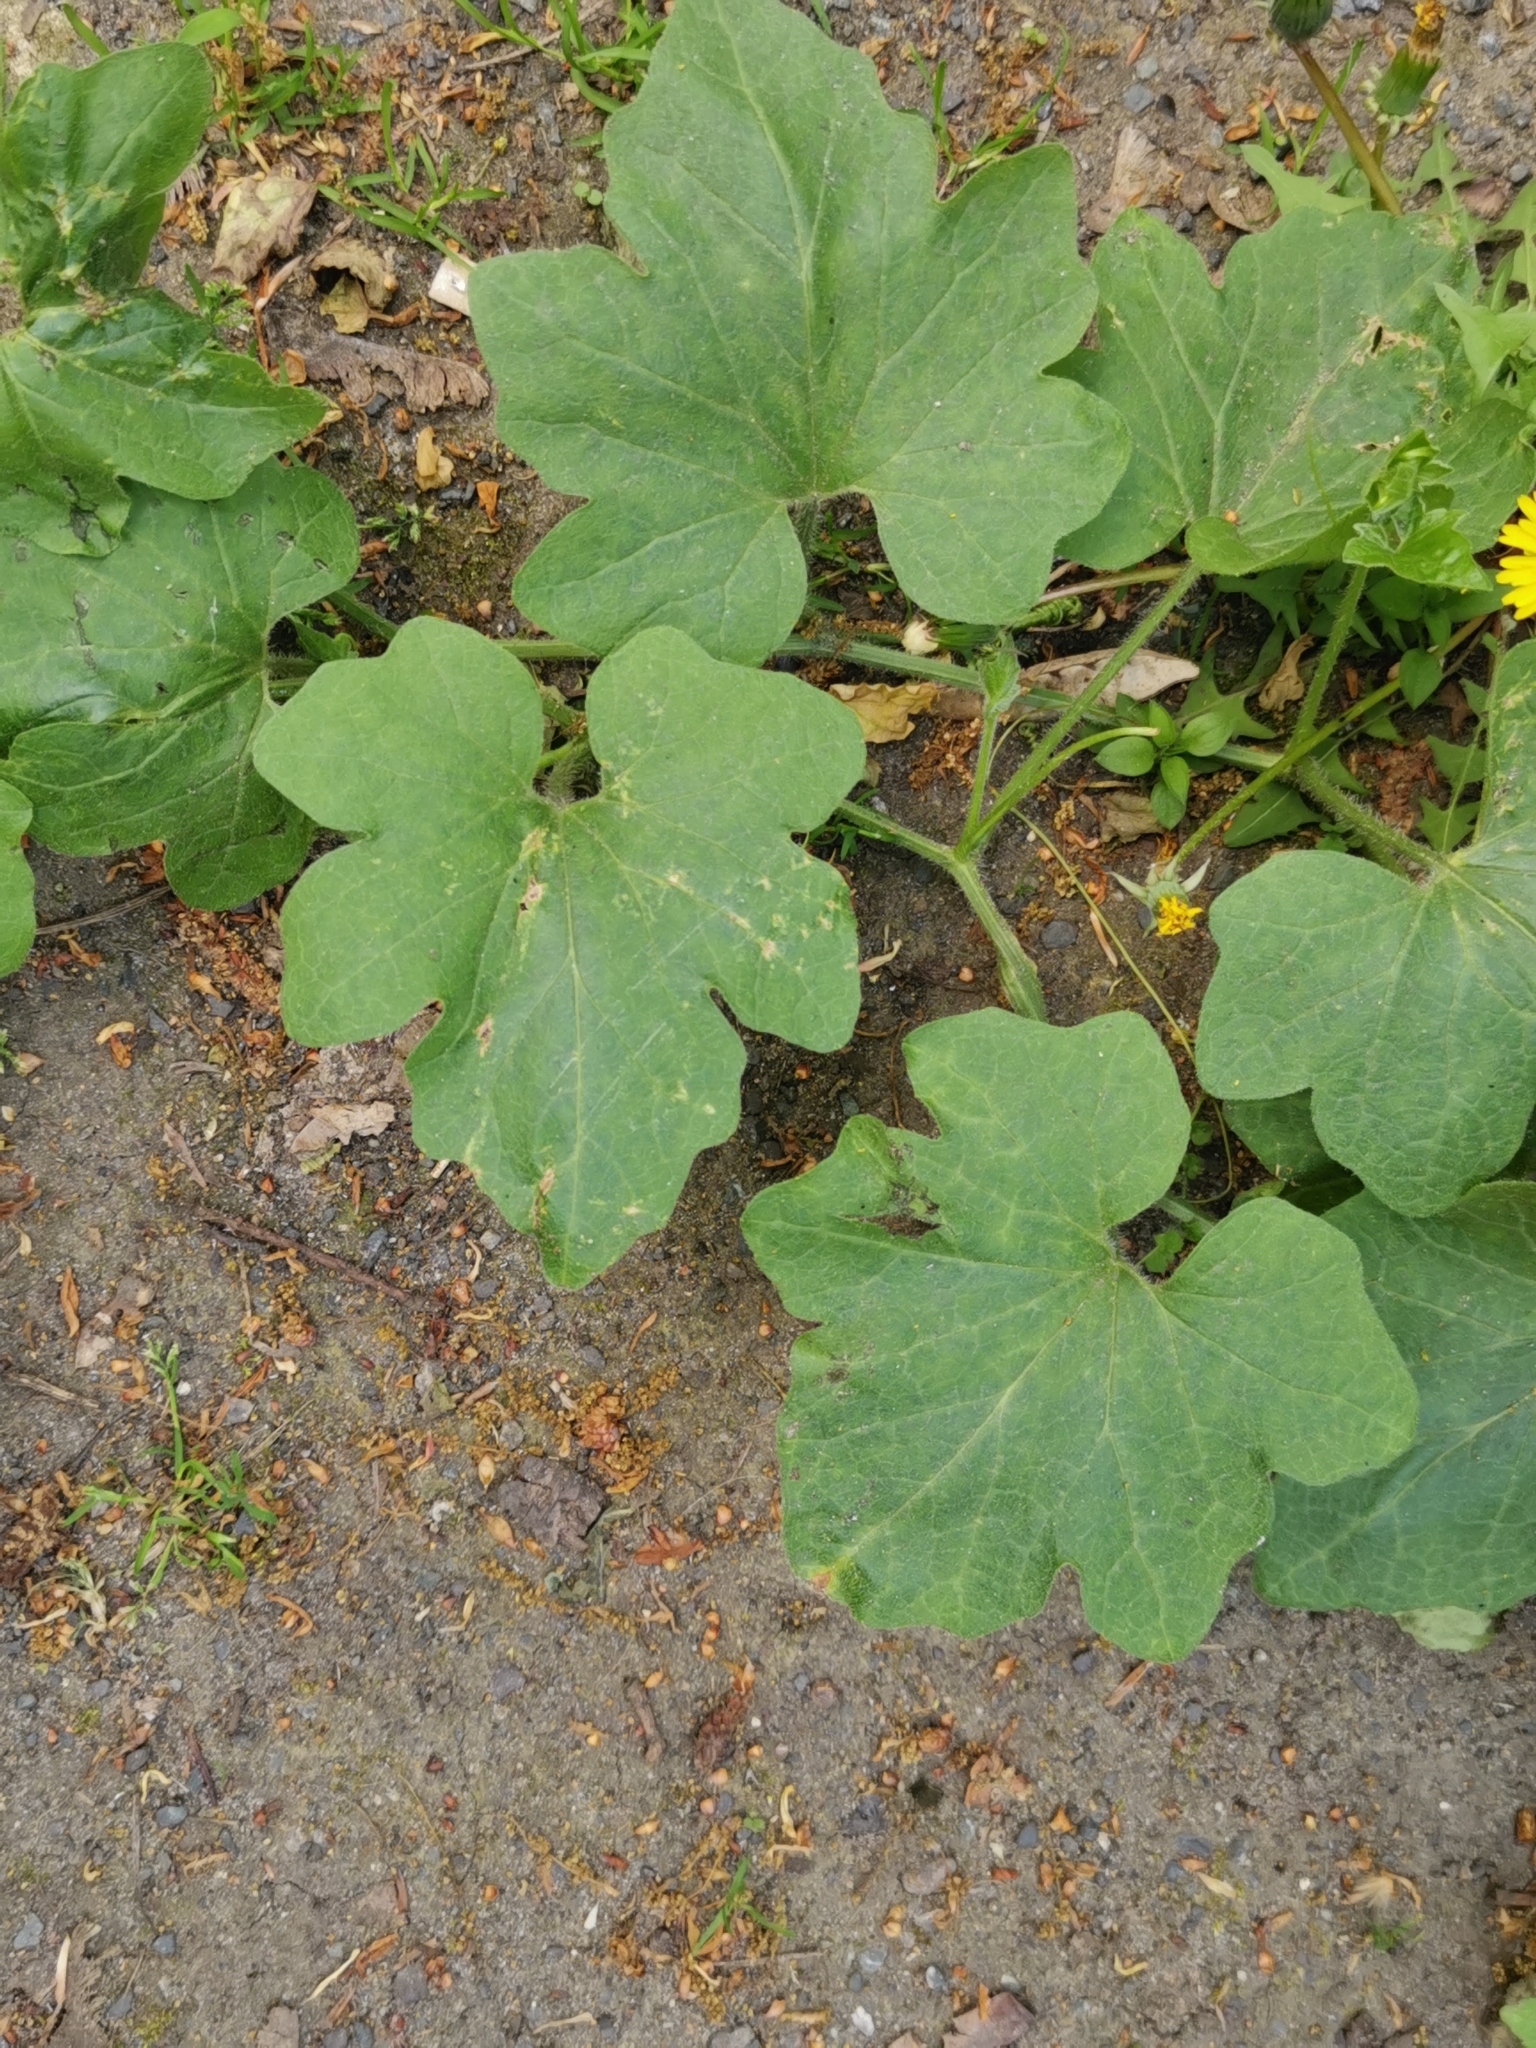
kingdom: Plantae
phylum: Tracheophyta
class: Magnoliopsida
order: Cucurbitales
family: Cucurbitaceae
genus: Bryonia
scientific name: Bryonia cretica
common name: Cretan bryony
